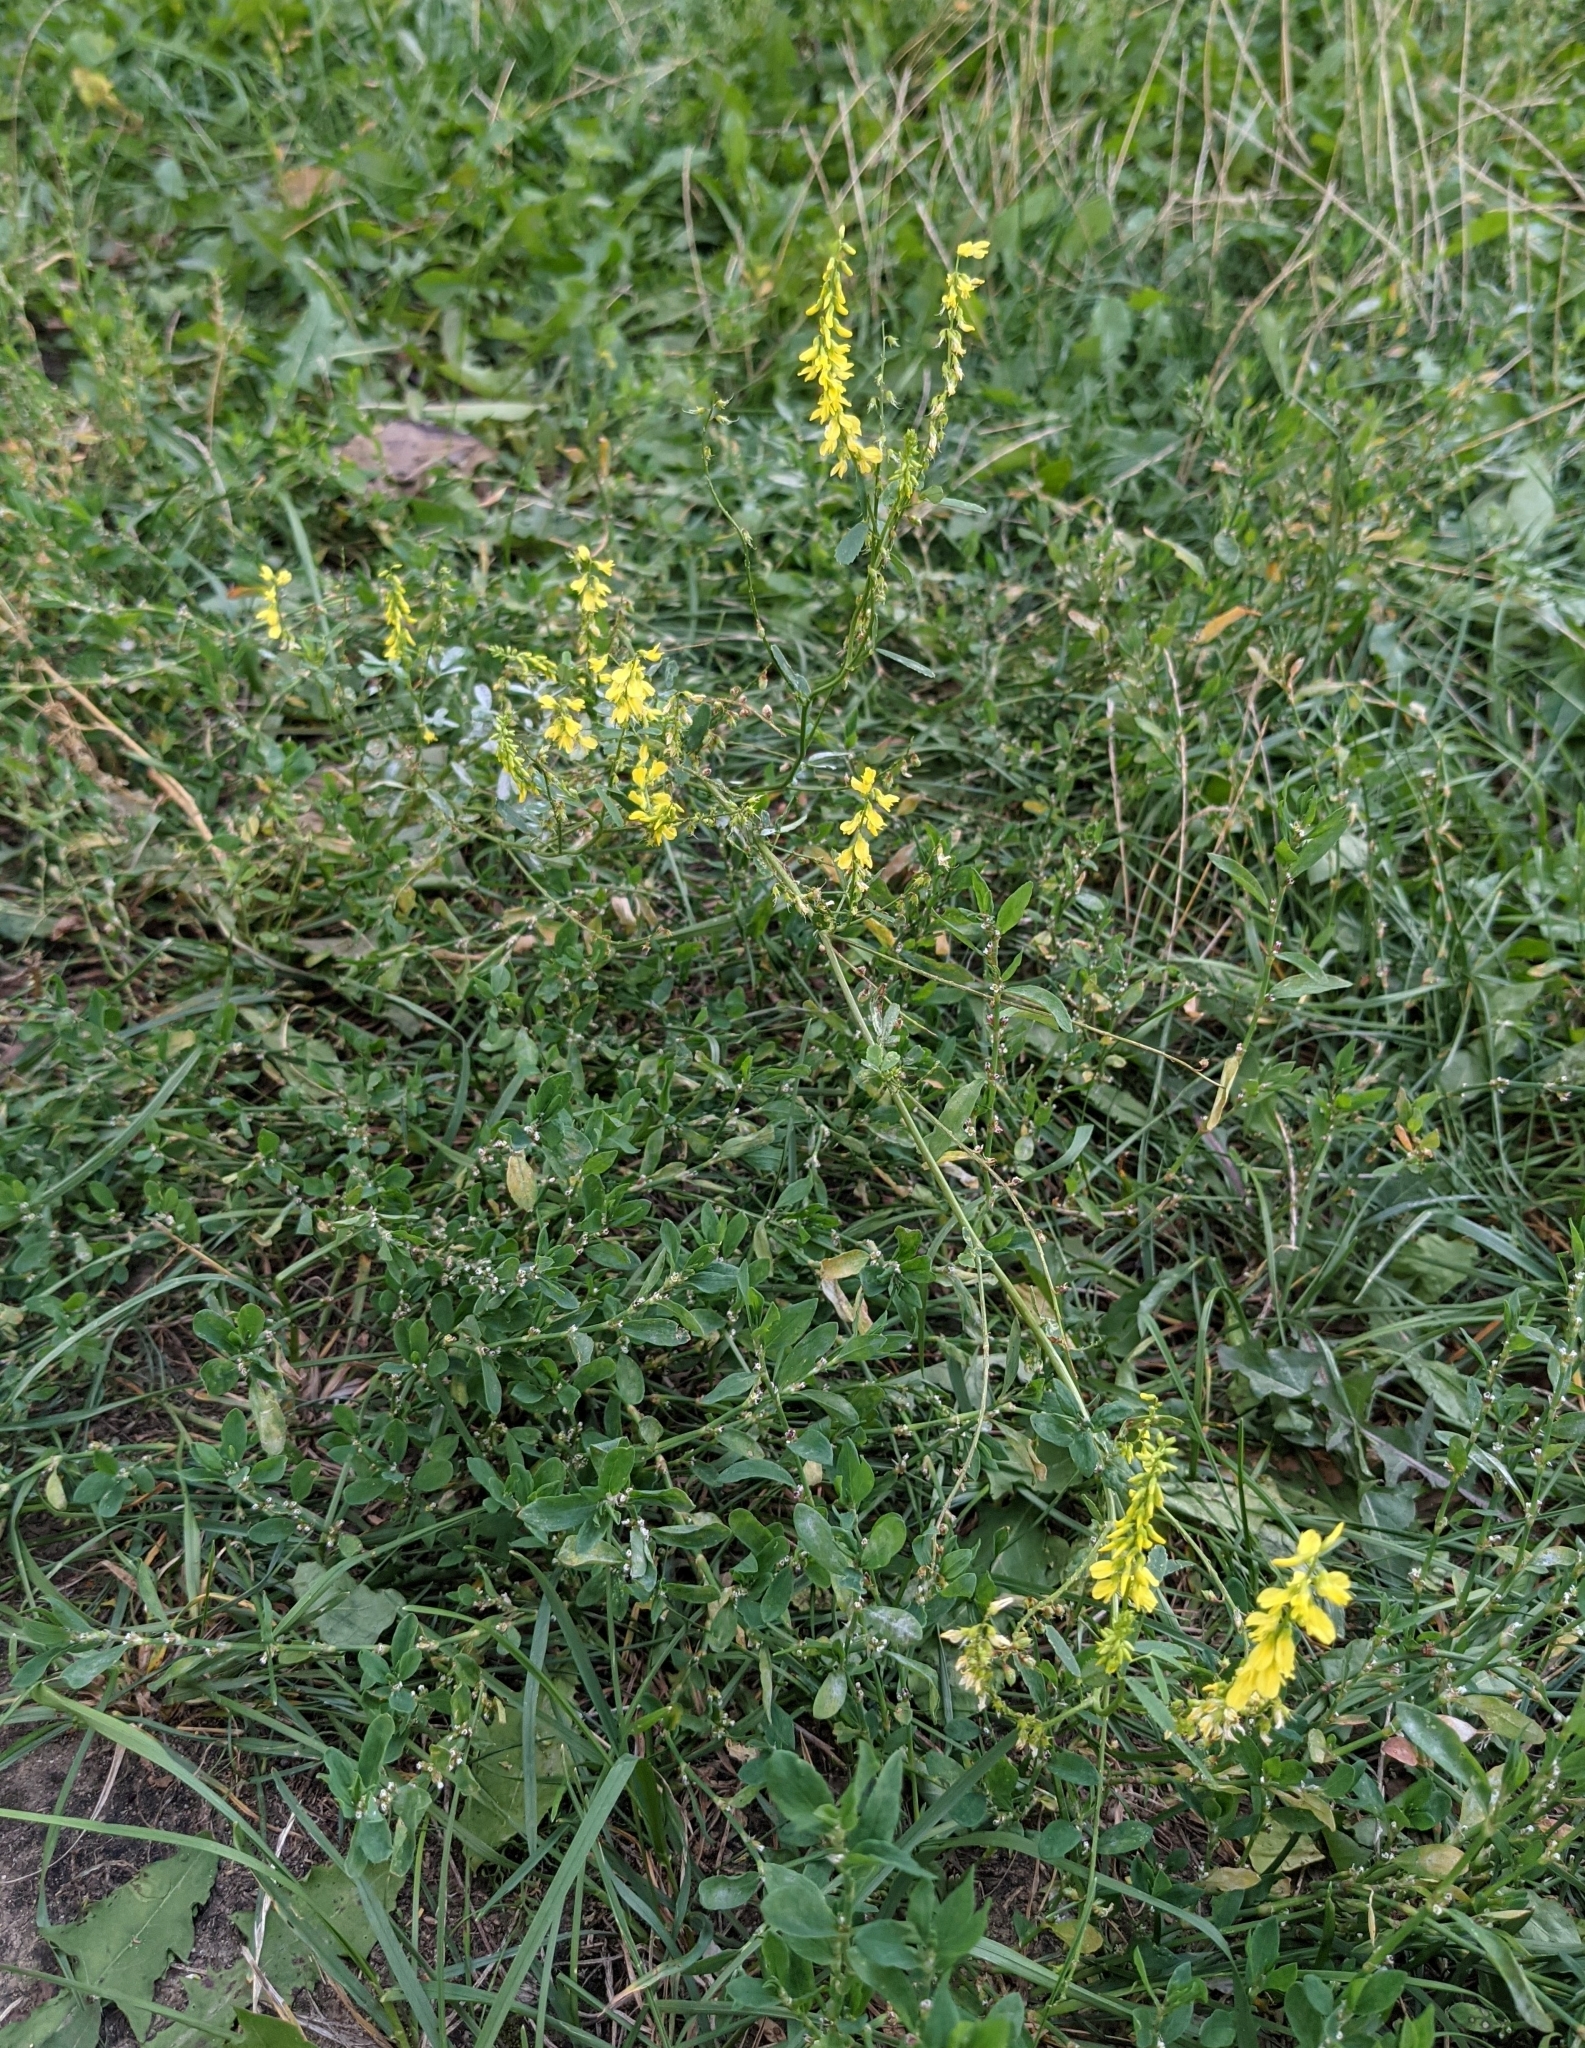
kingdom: Plantae
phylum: Tracheophyta
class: Magnoliopsida
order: Fabales
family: Fabaceae
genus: Melilotus
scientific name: Melilotus officinalis
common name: Sweetclover
